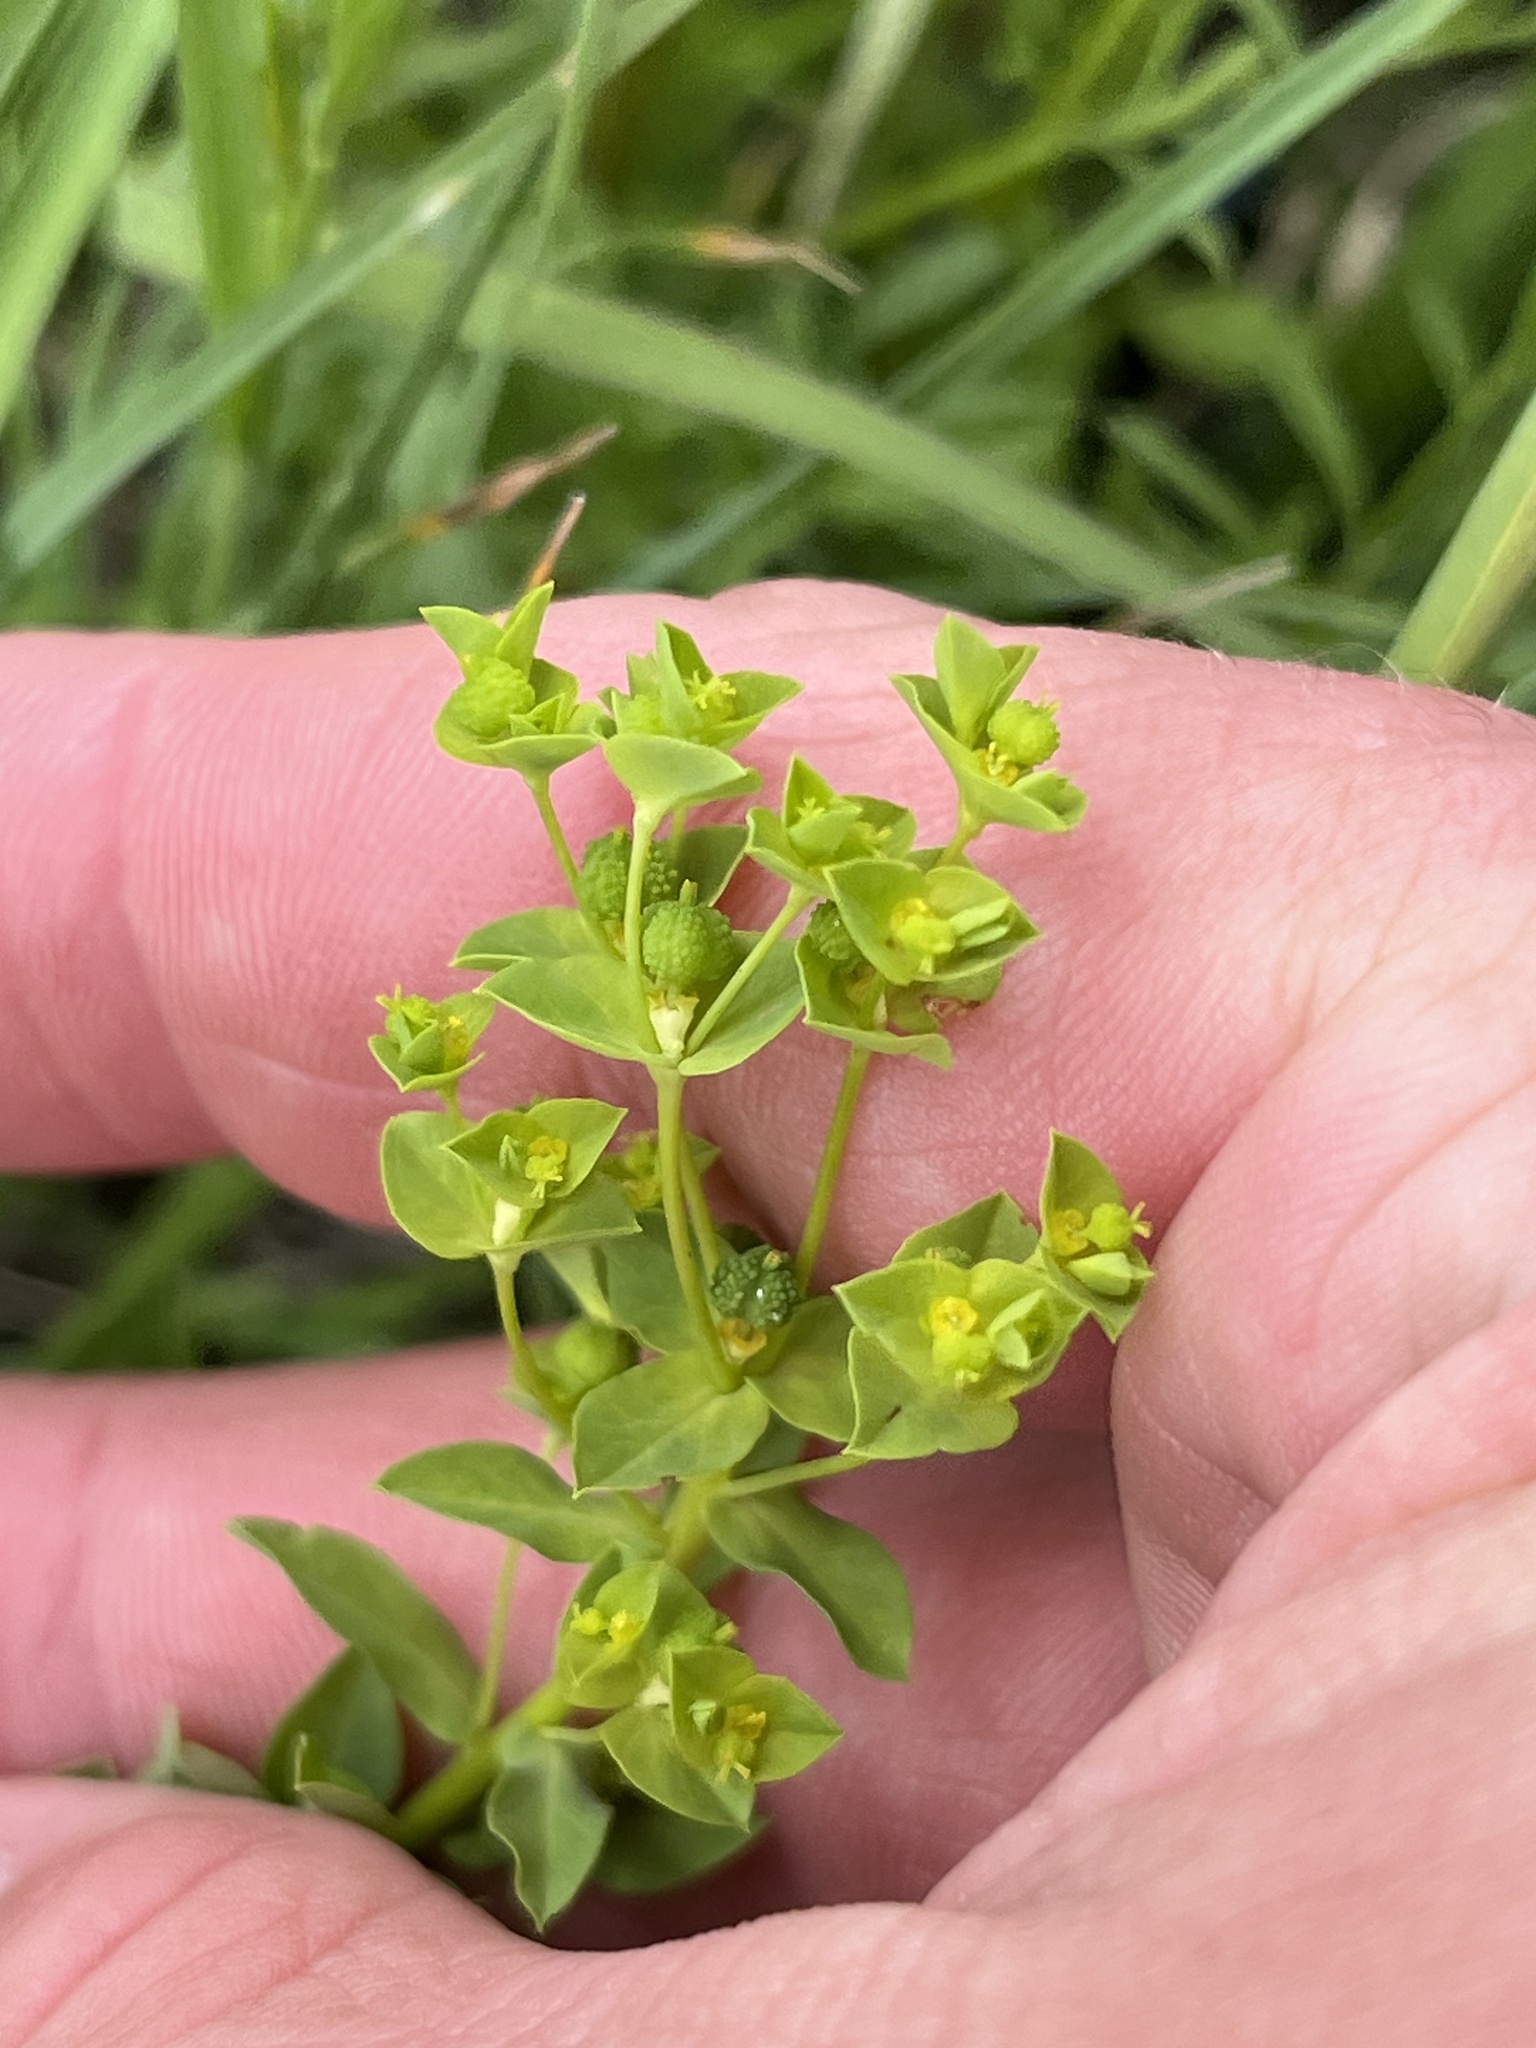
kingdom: Plantae
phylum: Tracheophyta
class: Magnoliopsida
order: Malpighiales
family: Euphorbiaceae
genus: Euphorbia
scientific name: Euphorbia spathulata
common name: Blunt spurge
